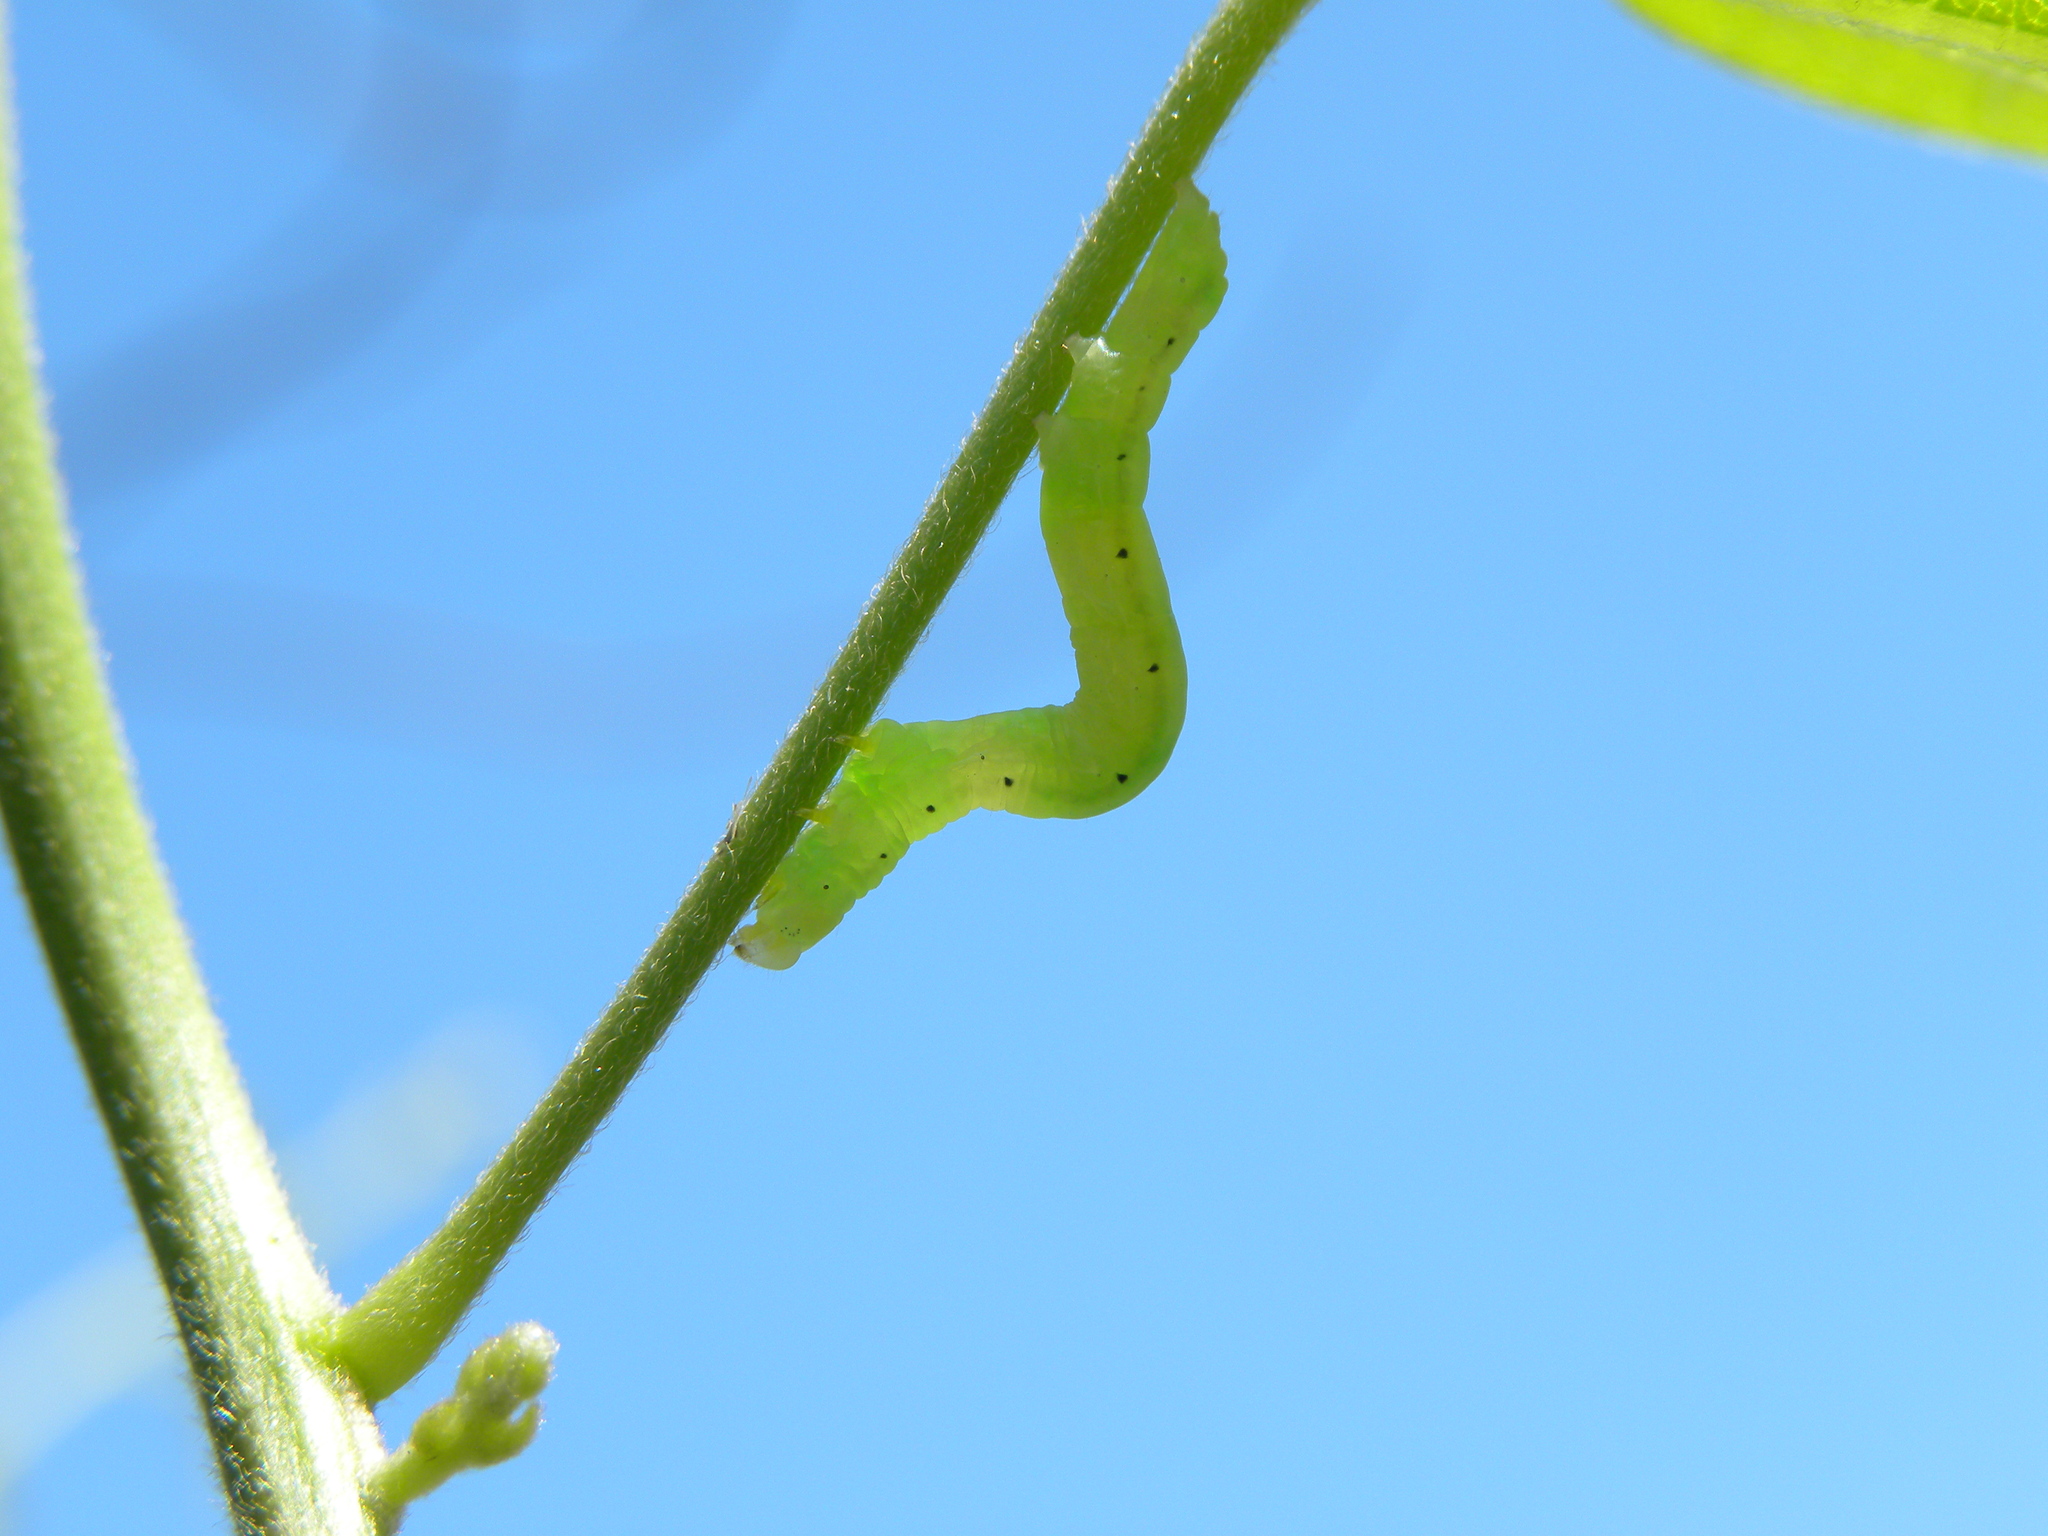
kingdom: Animalia
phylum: Arthropoda
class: Insecta
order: Lepidoptera
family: Erebidae
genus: Plusiodonta
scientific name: Plusiodonta compressipalpis
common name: Moonseed moth
